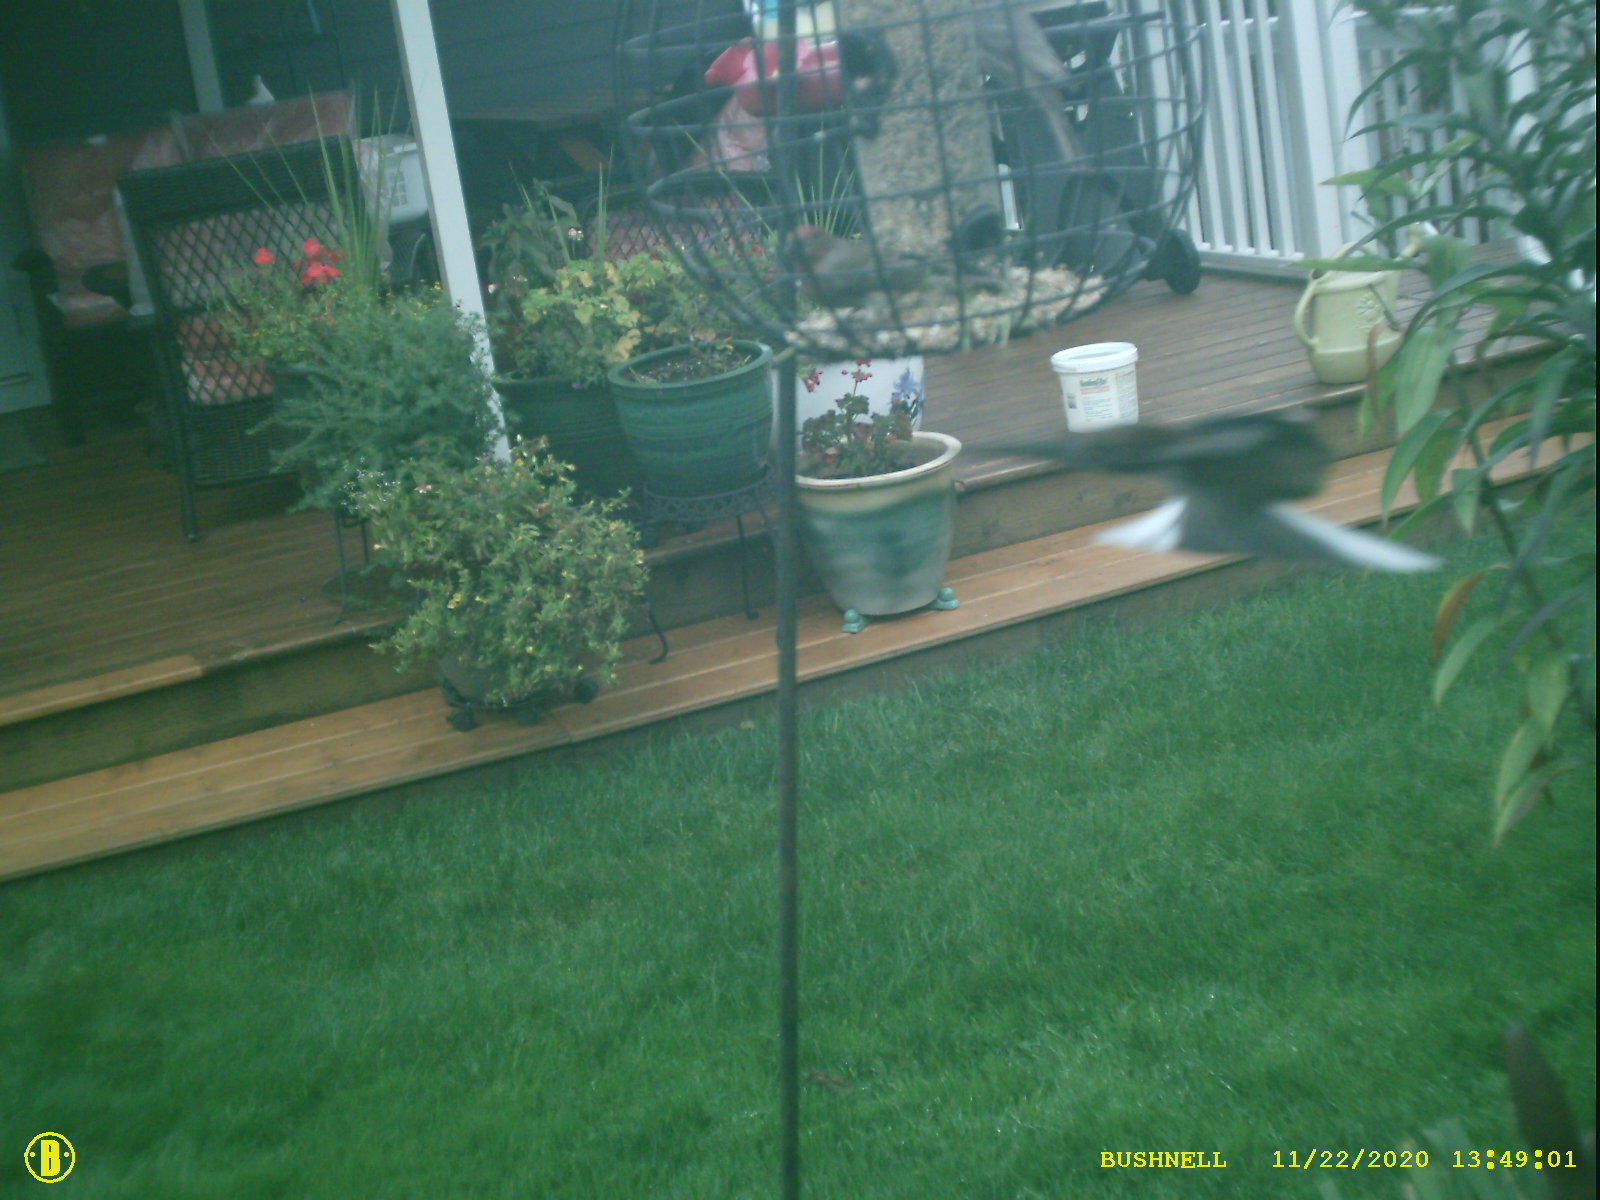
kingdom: Animalia
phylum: Chordata
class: Aves
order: Passeriformes
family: Fringillidae
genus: Haemorhous
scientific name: Haemorhous mexicanus
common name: House finch
